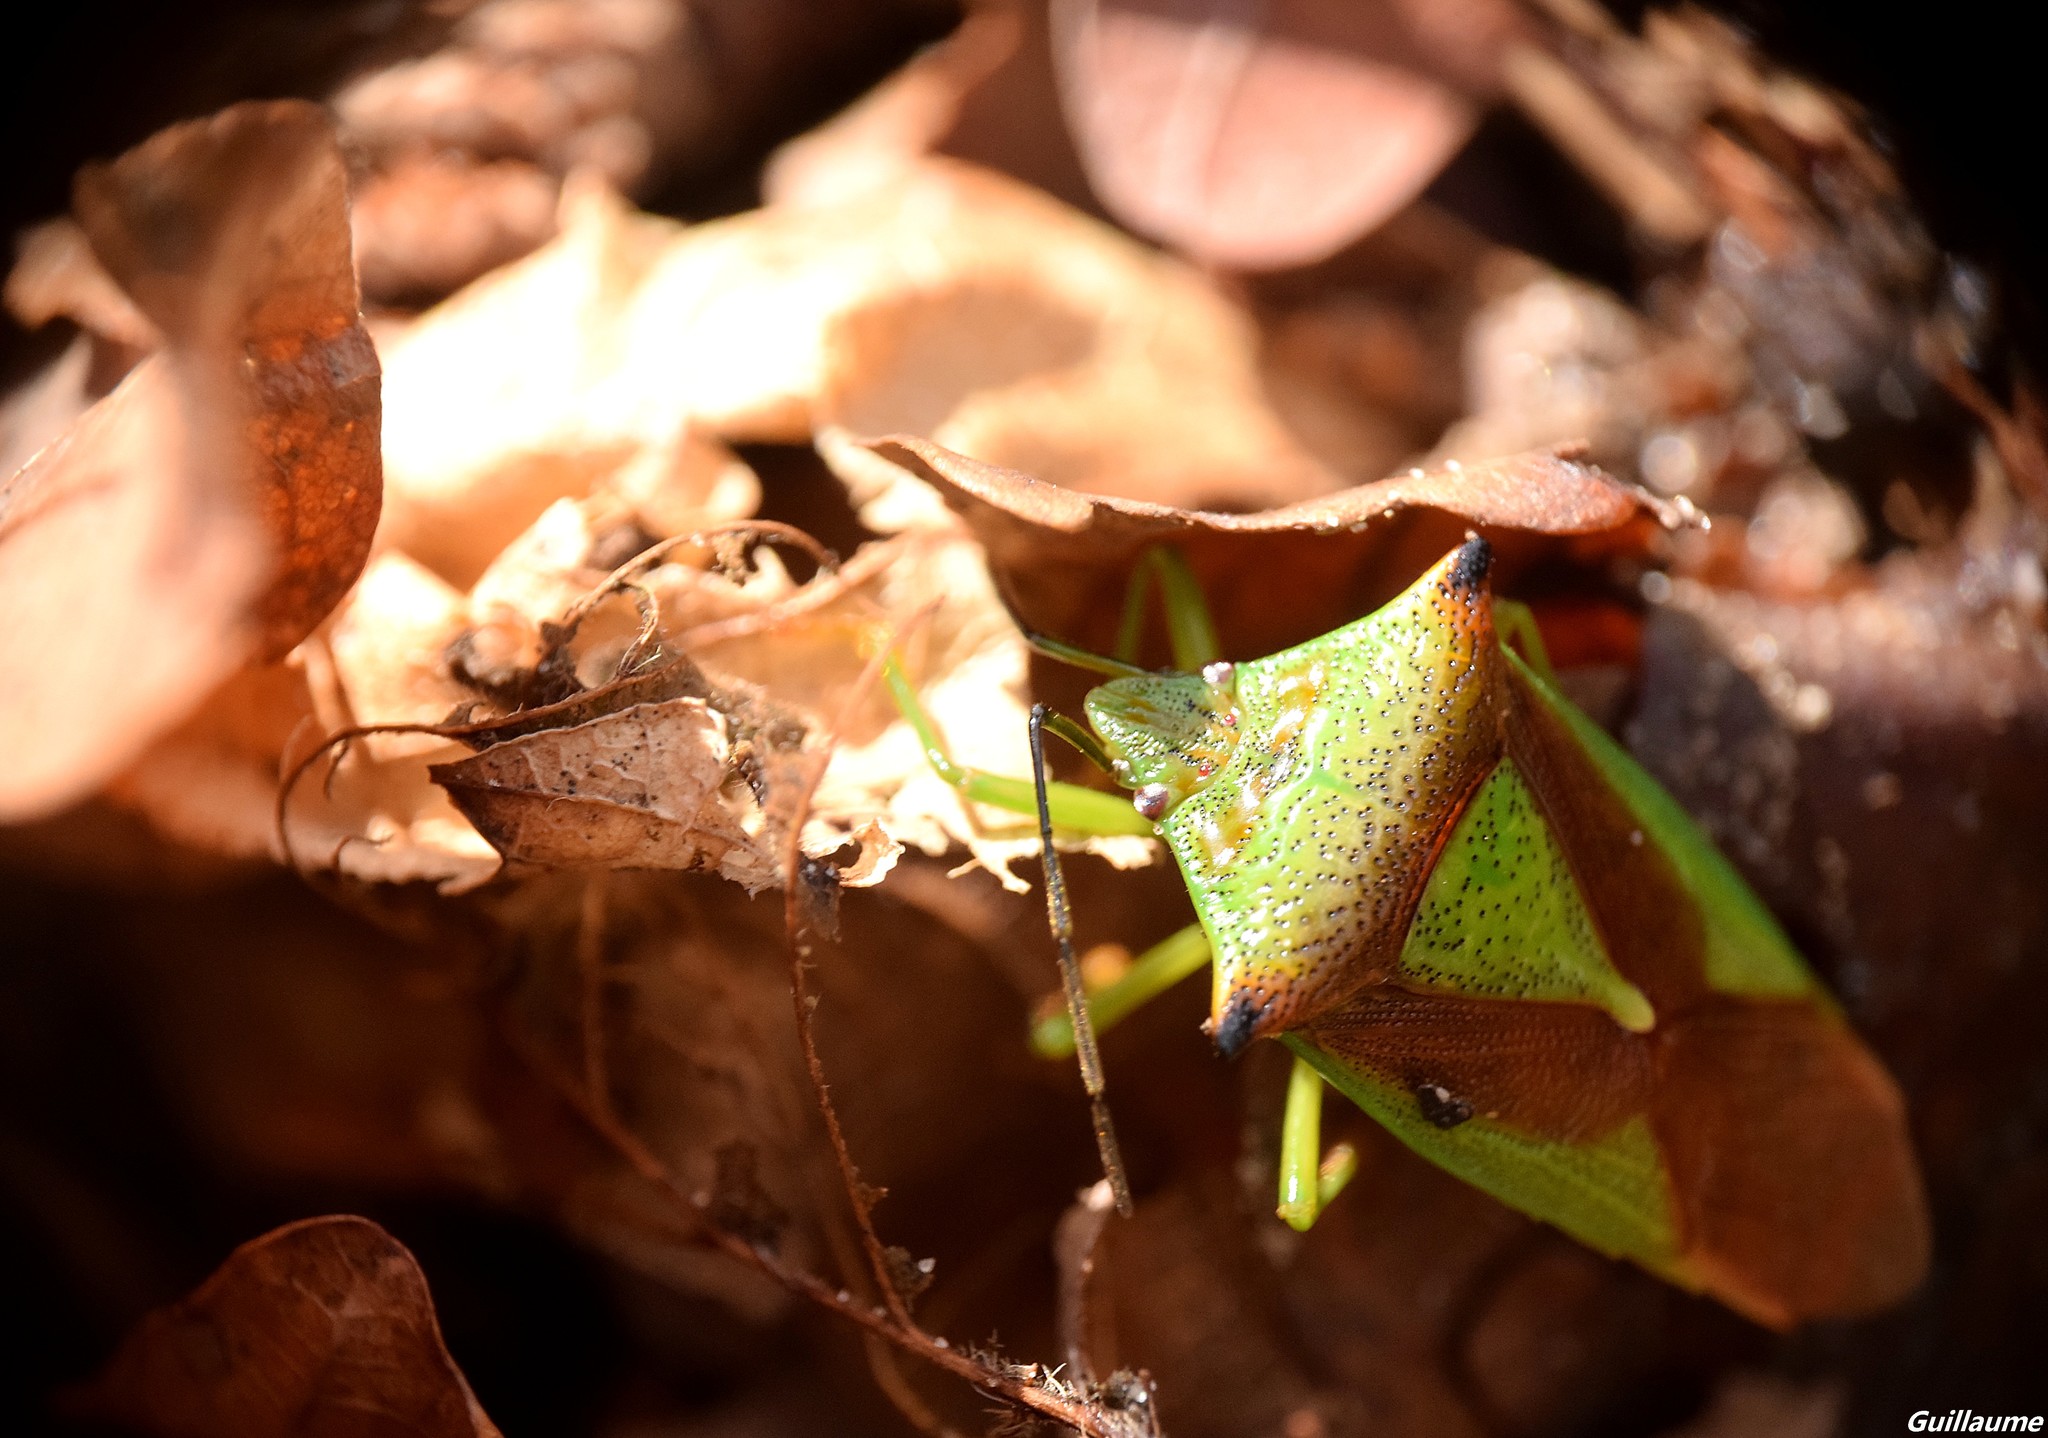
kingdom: Animalia
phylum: Arthropoda
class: Insecta
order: Hemiptera
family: Acanthosomatidae
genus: Acanthosoma
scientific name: Acanthosoma haemorrhoidale
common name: Hawthorn shieldbug
